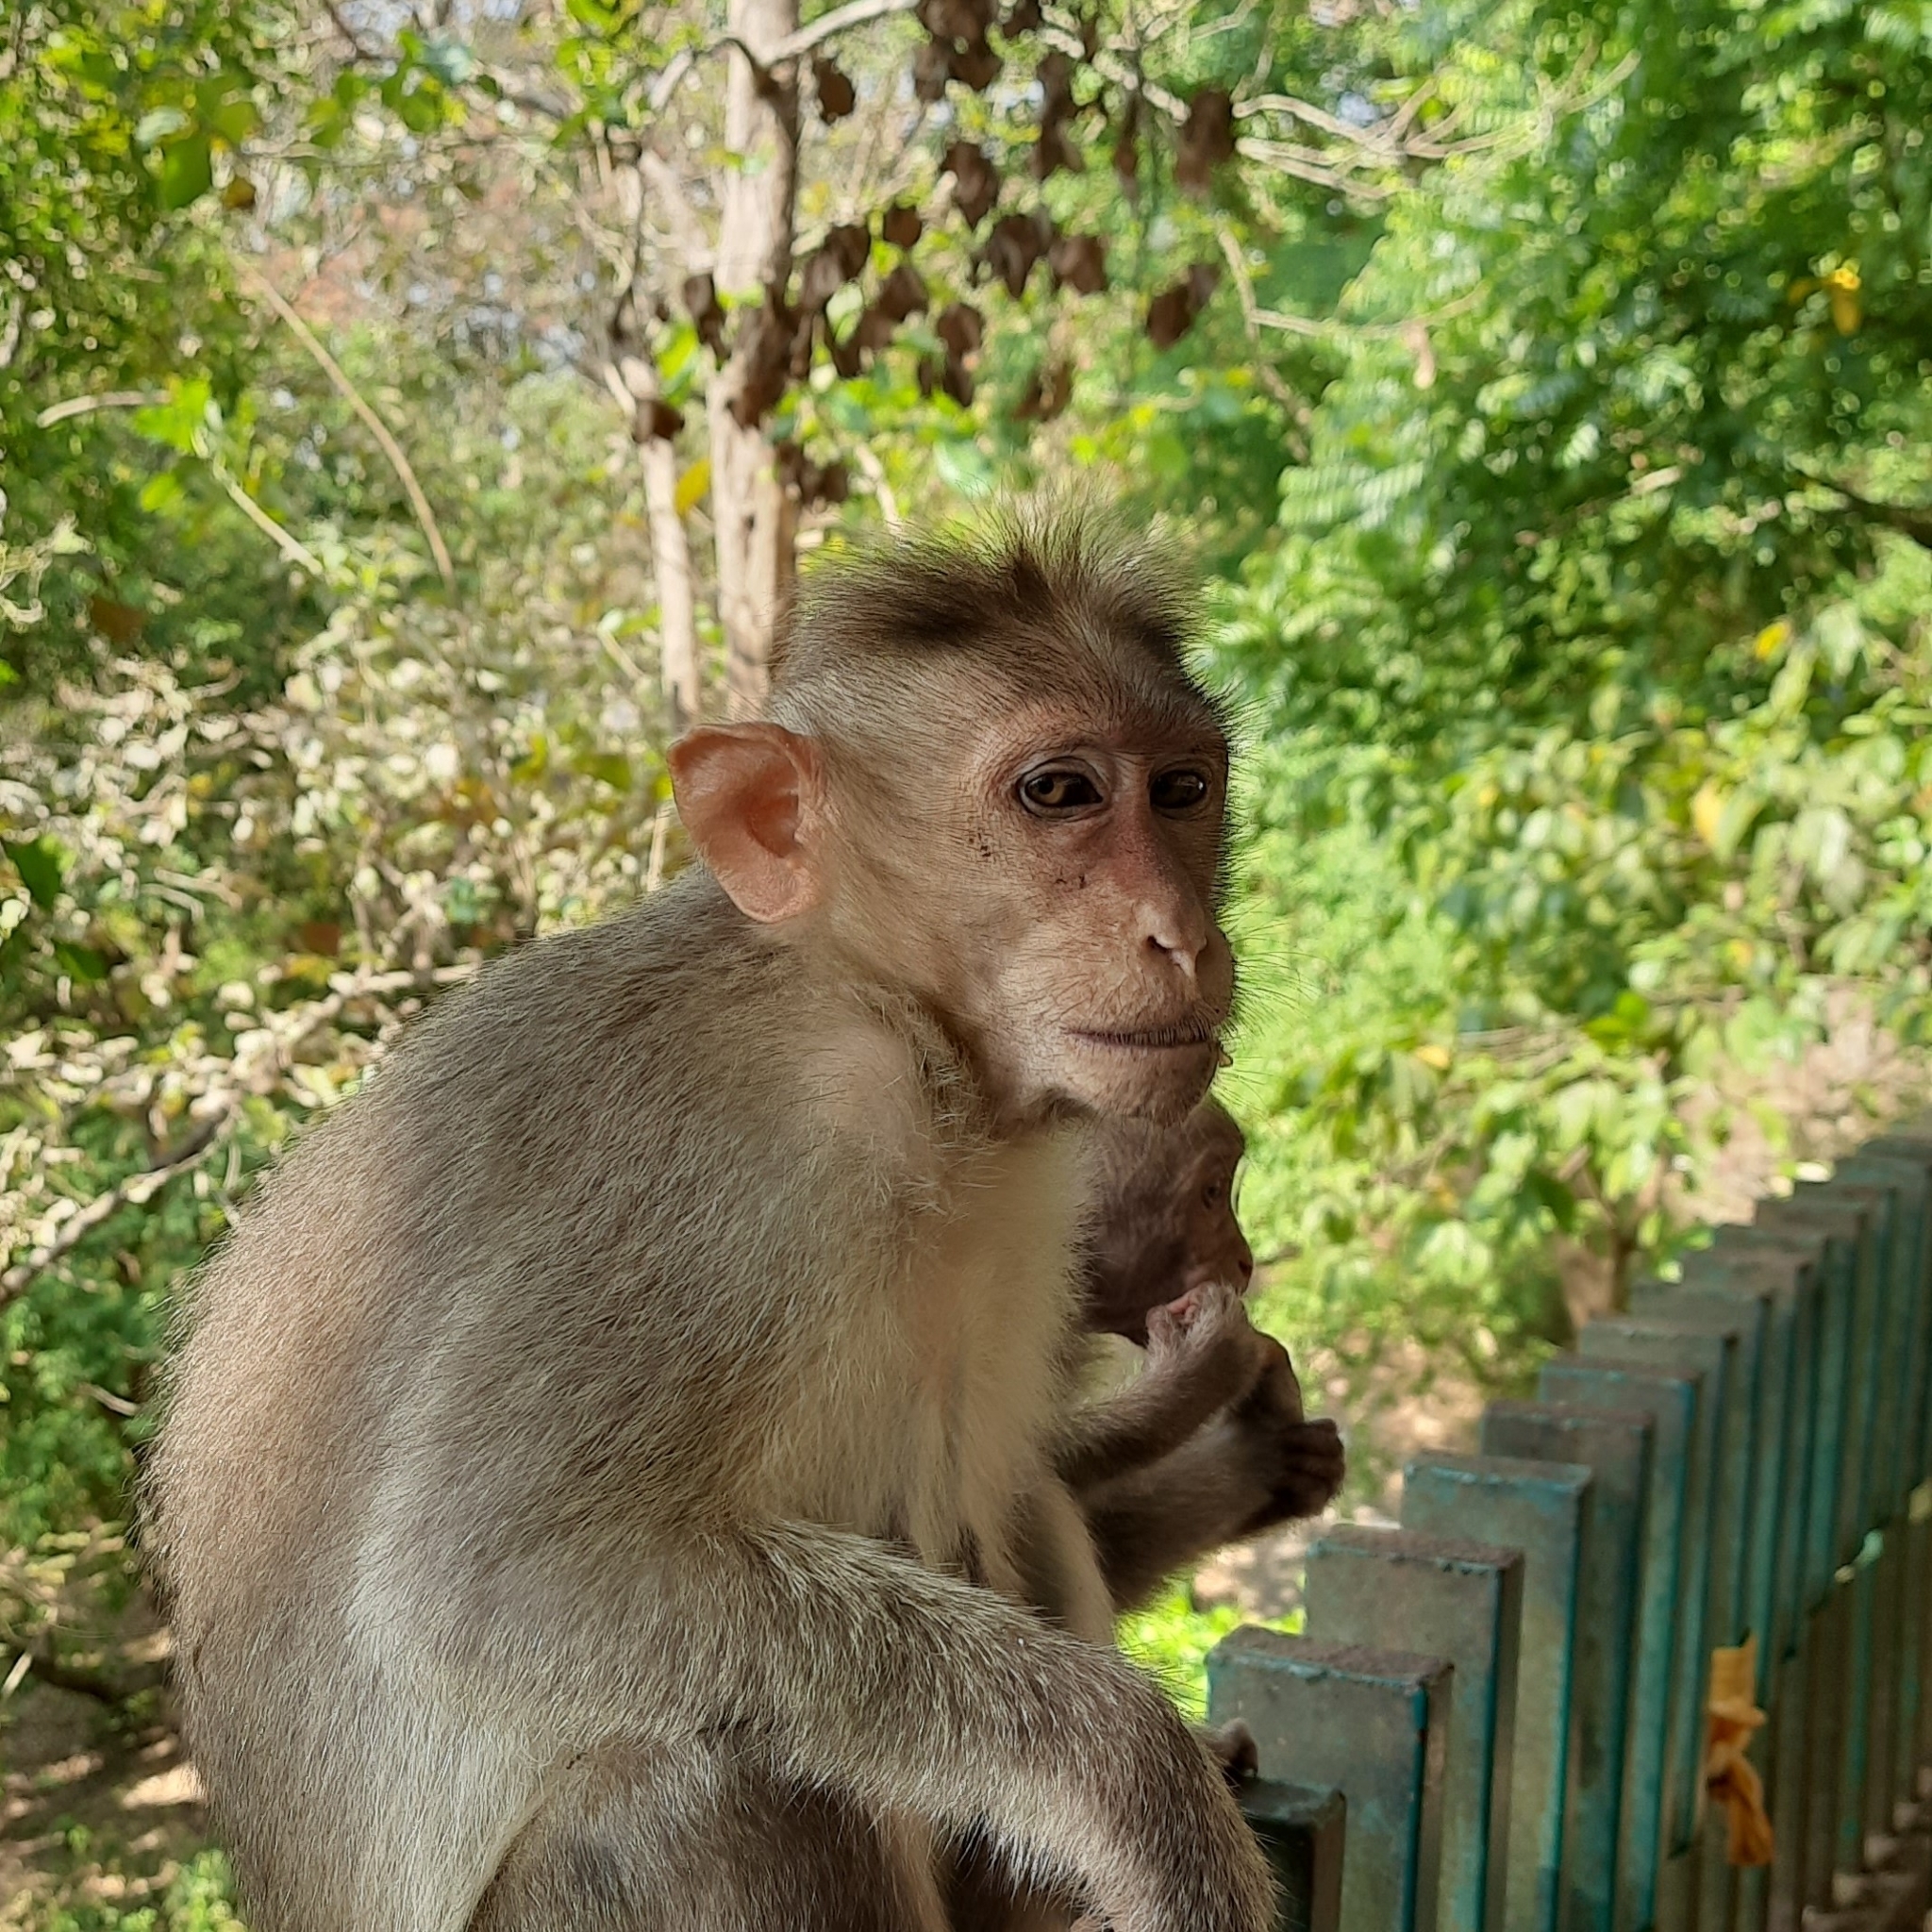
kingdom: Animalia
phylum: Chordata
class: Mammalia
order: Primates
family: Cercopithecidae
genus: Macaca
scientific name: Macaca radiata
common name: Bonnet macaque
